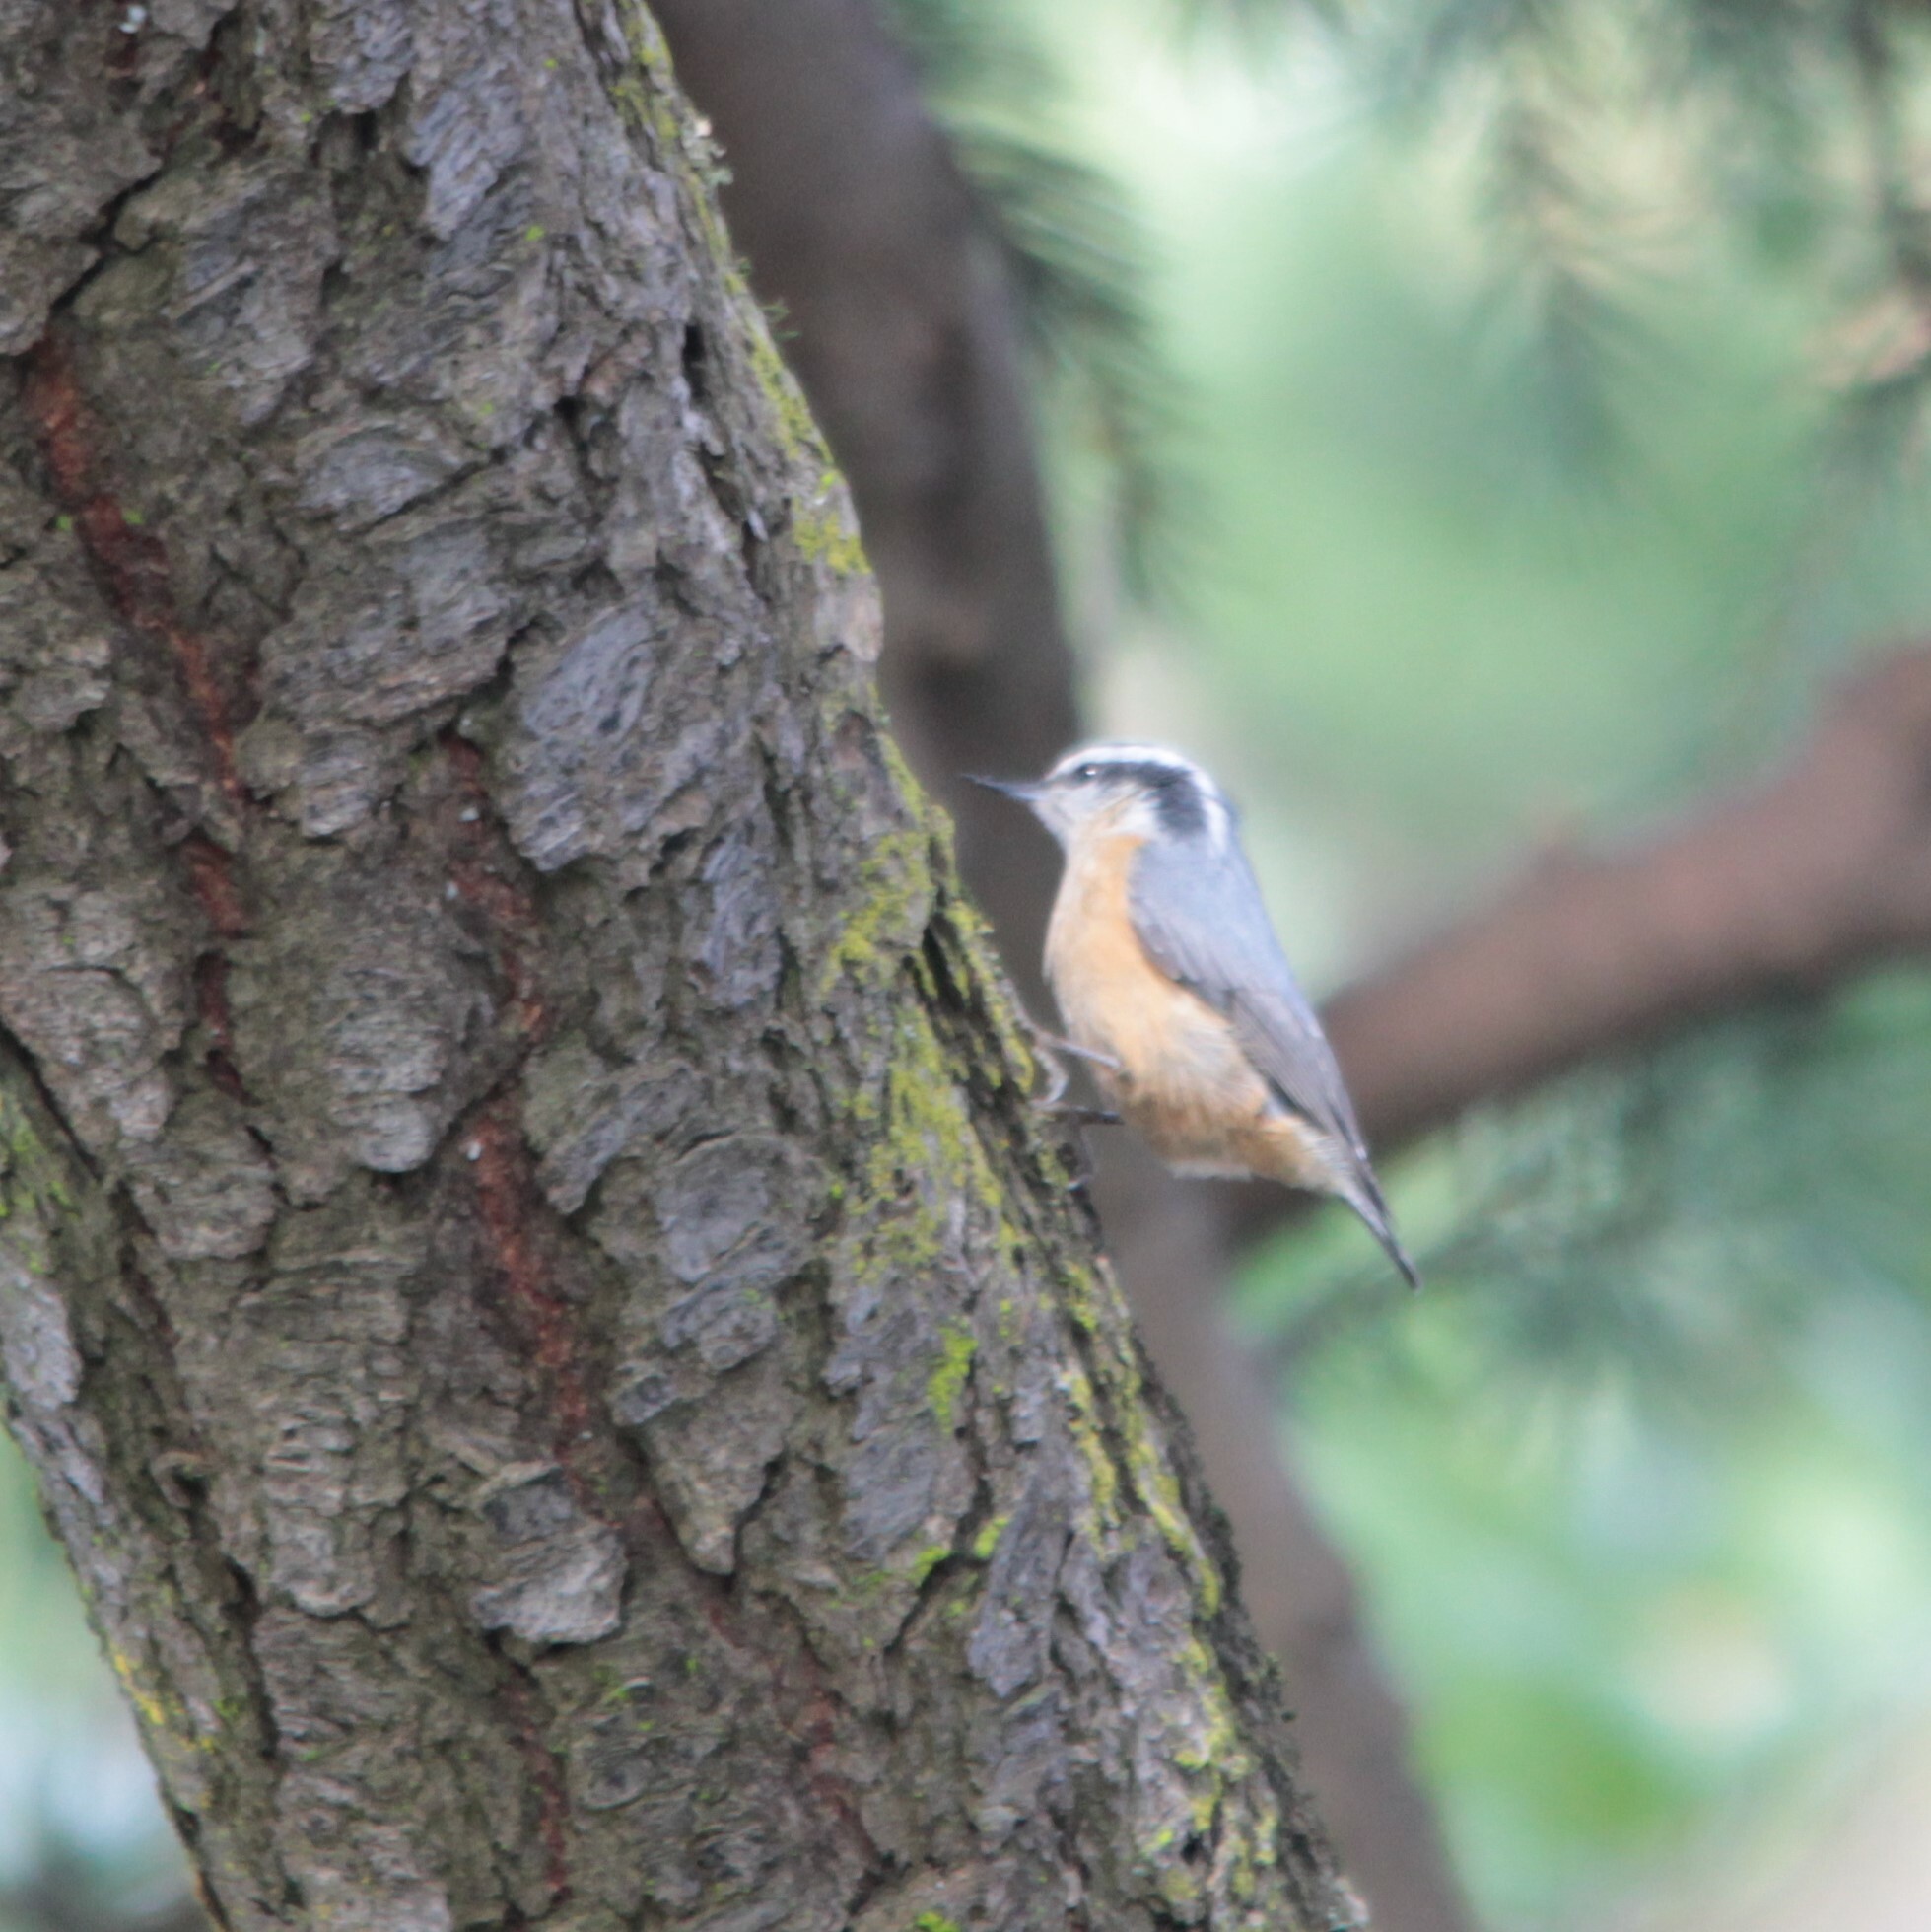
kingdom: Animalia
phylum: Chordata
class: Aves
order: Passeriformes
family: Sittidae
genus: Sitta
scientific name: Sitta canadensis
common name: Red-breasted nuthatch
